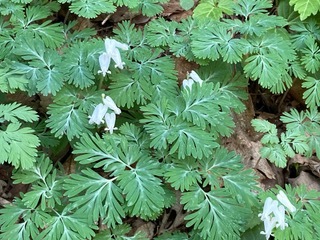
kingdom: Plantae
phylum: Tracheophyta
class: Magnoliopsida
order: Ranunculales
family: Papaveraceae
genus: Dicentra
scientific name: Dicentra canadensis
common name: Squirrel-corn
